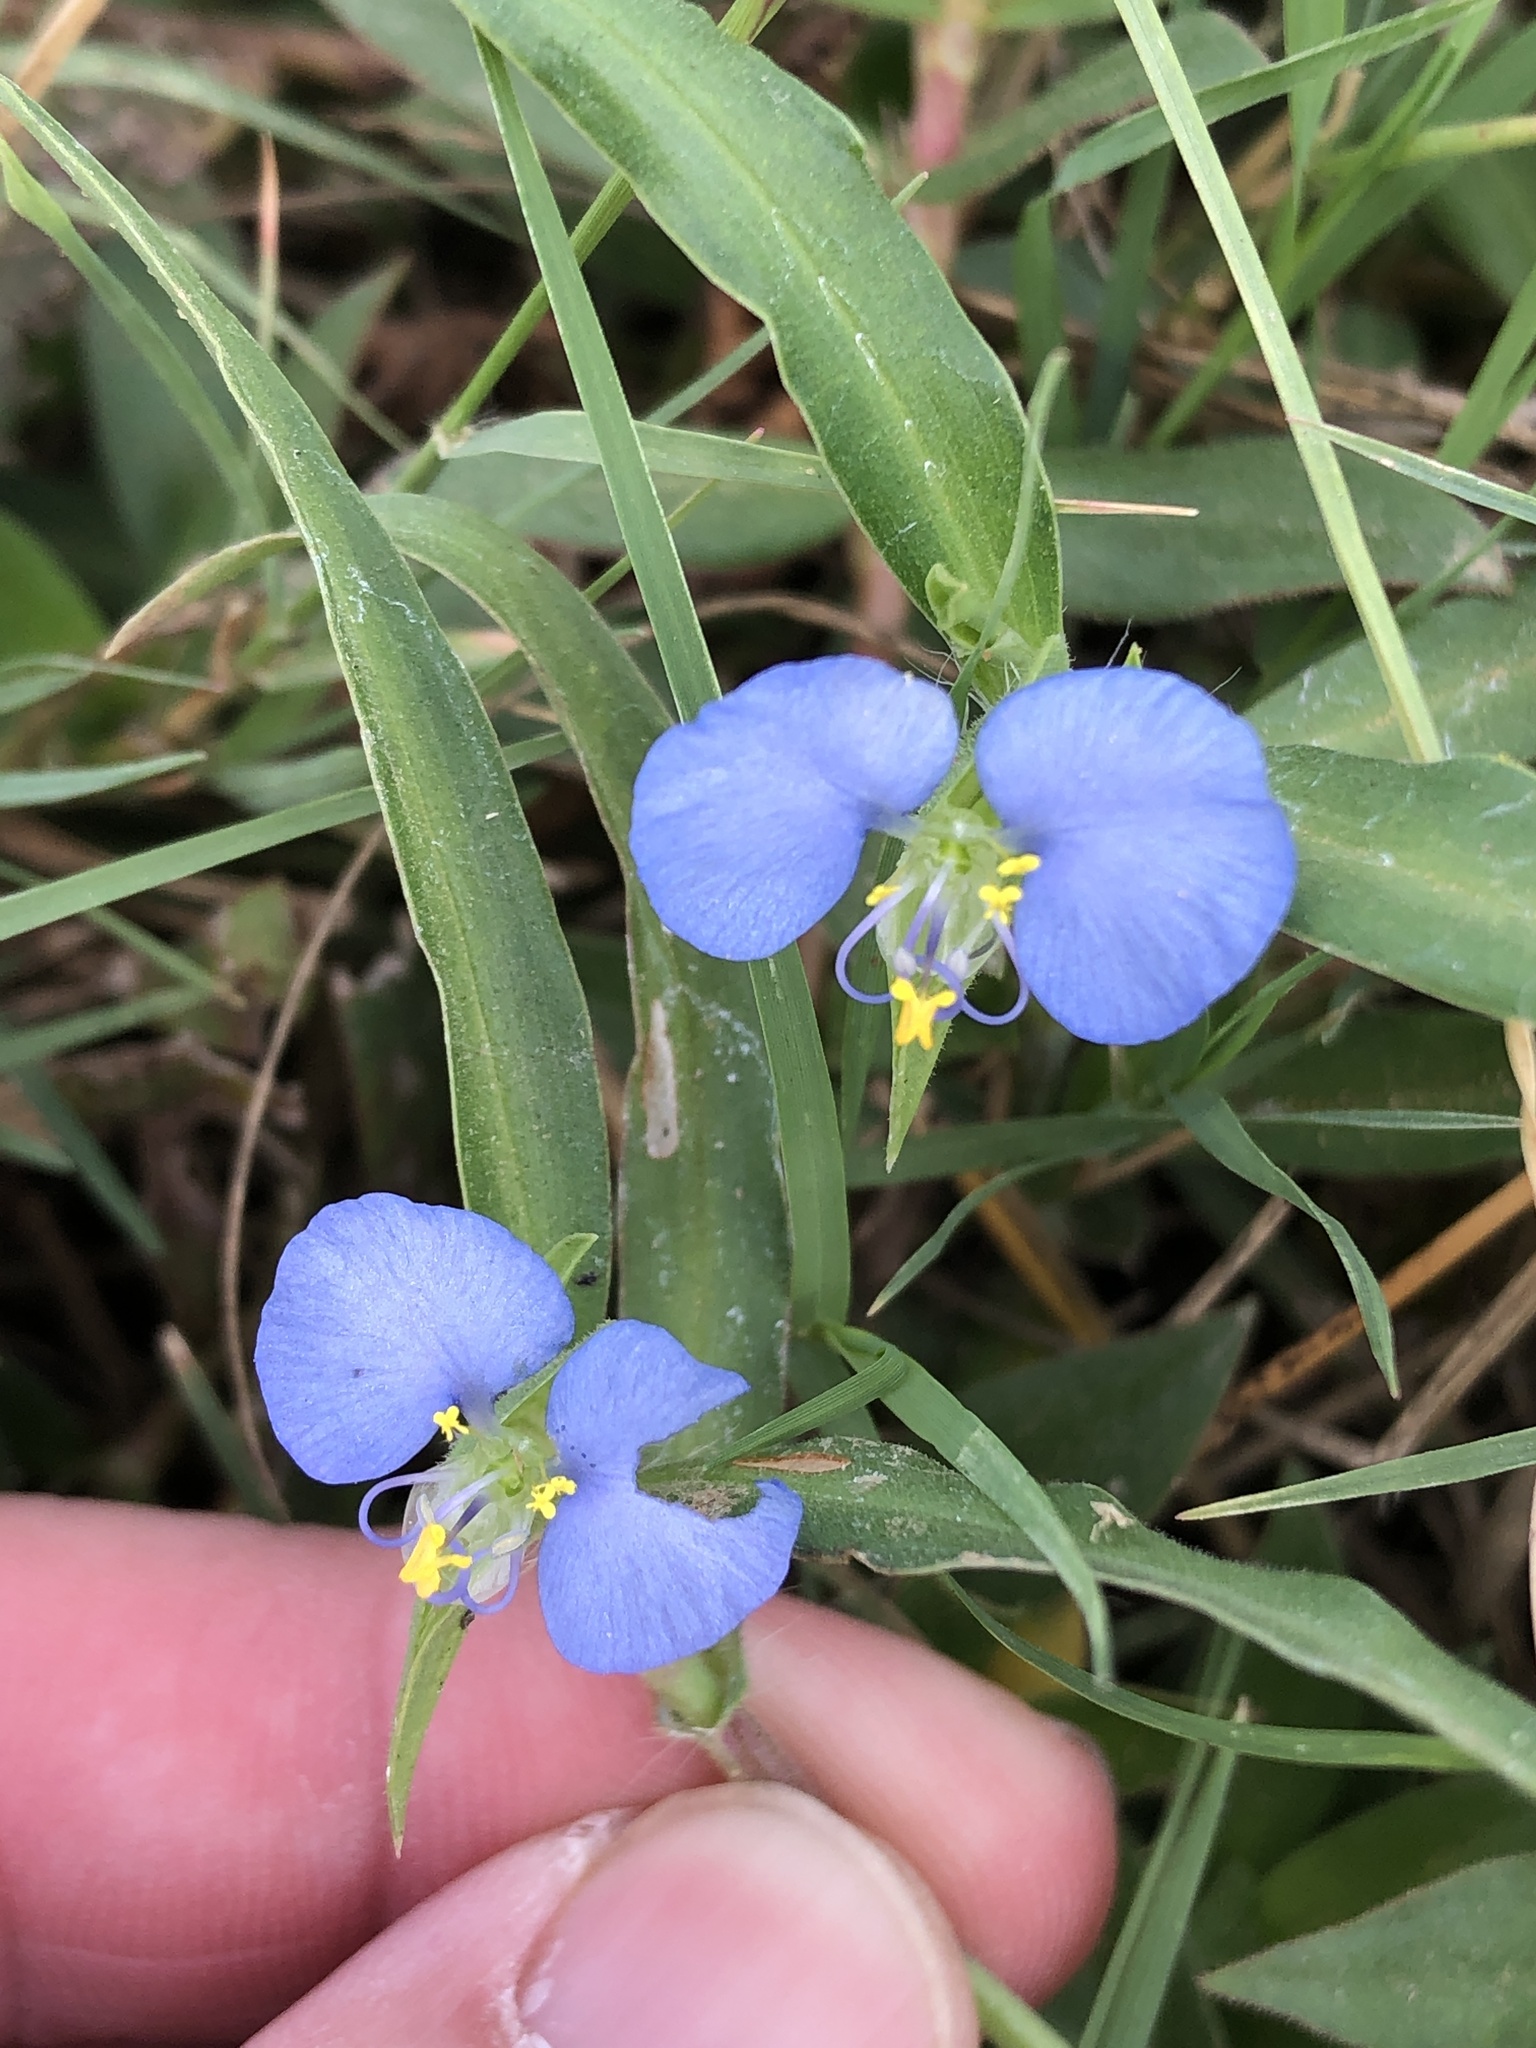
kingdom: Plantae
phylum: Tracheophyta
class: Liliopsida
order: Commelinales
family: Commelinaceae
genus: Commelina
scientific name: Commelina erecta
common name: Blousel blommetjie
